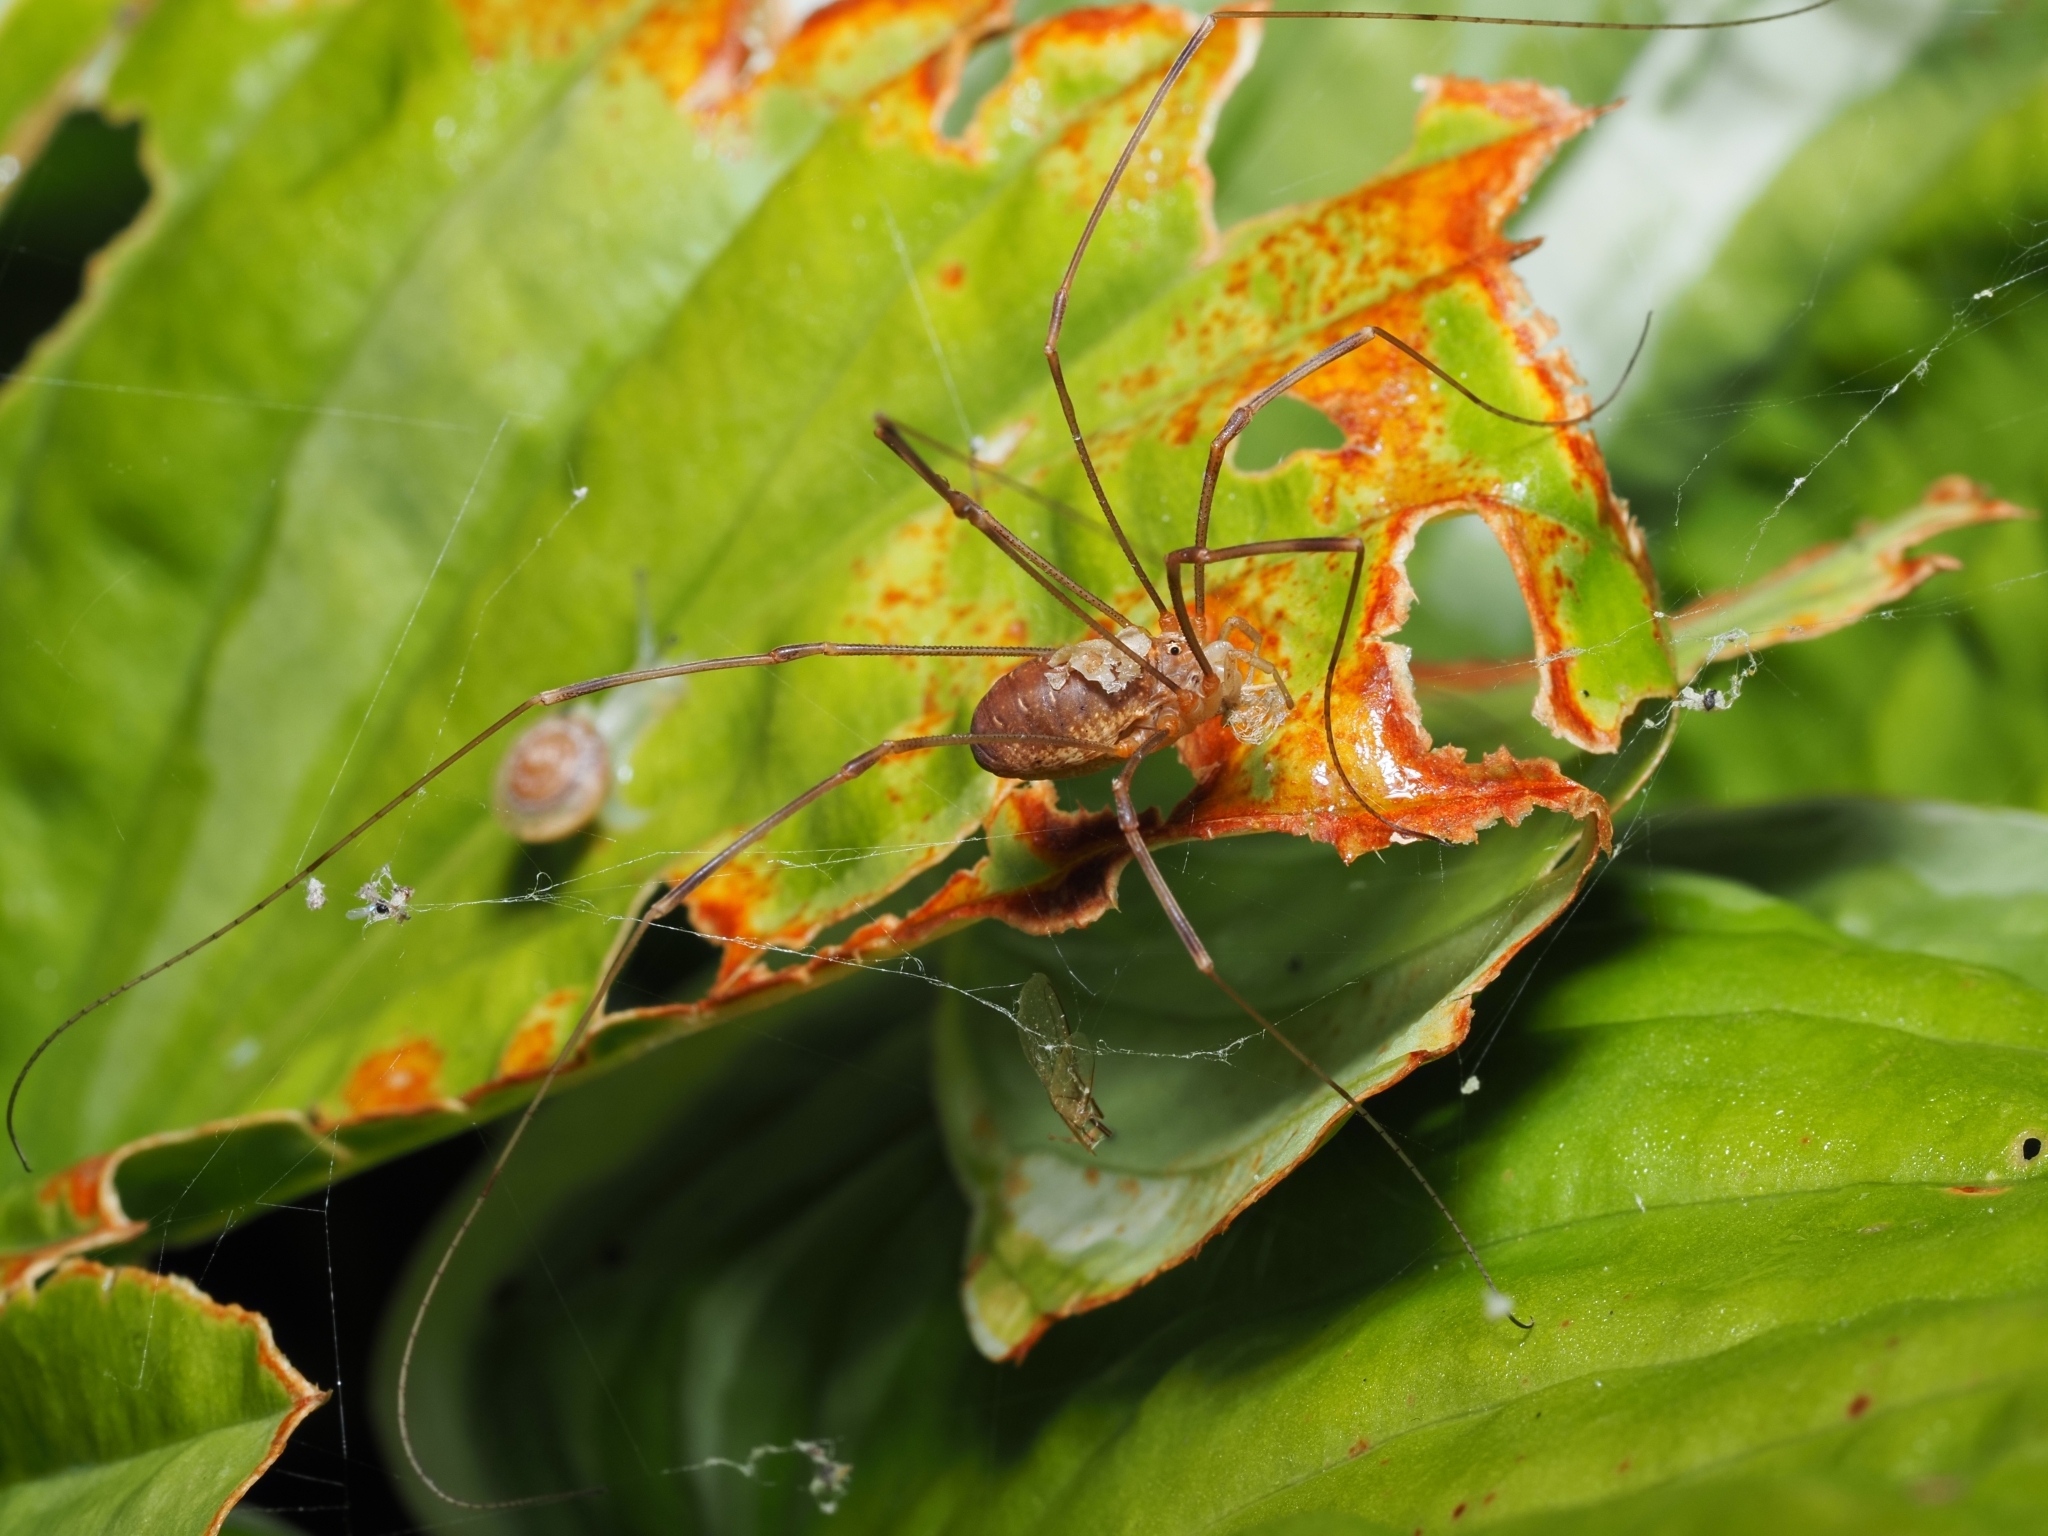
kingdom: Animalia
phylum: Arthropoda
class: Arachnida
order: Opiliones
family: Phalangiidae
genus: Opilio
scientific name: Opilio canestrinii
